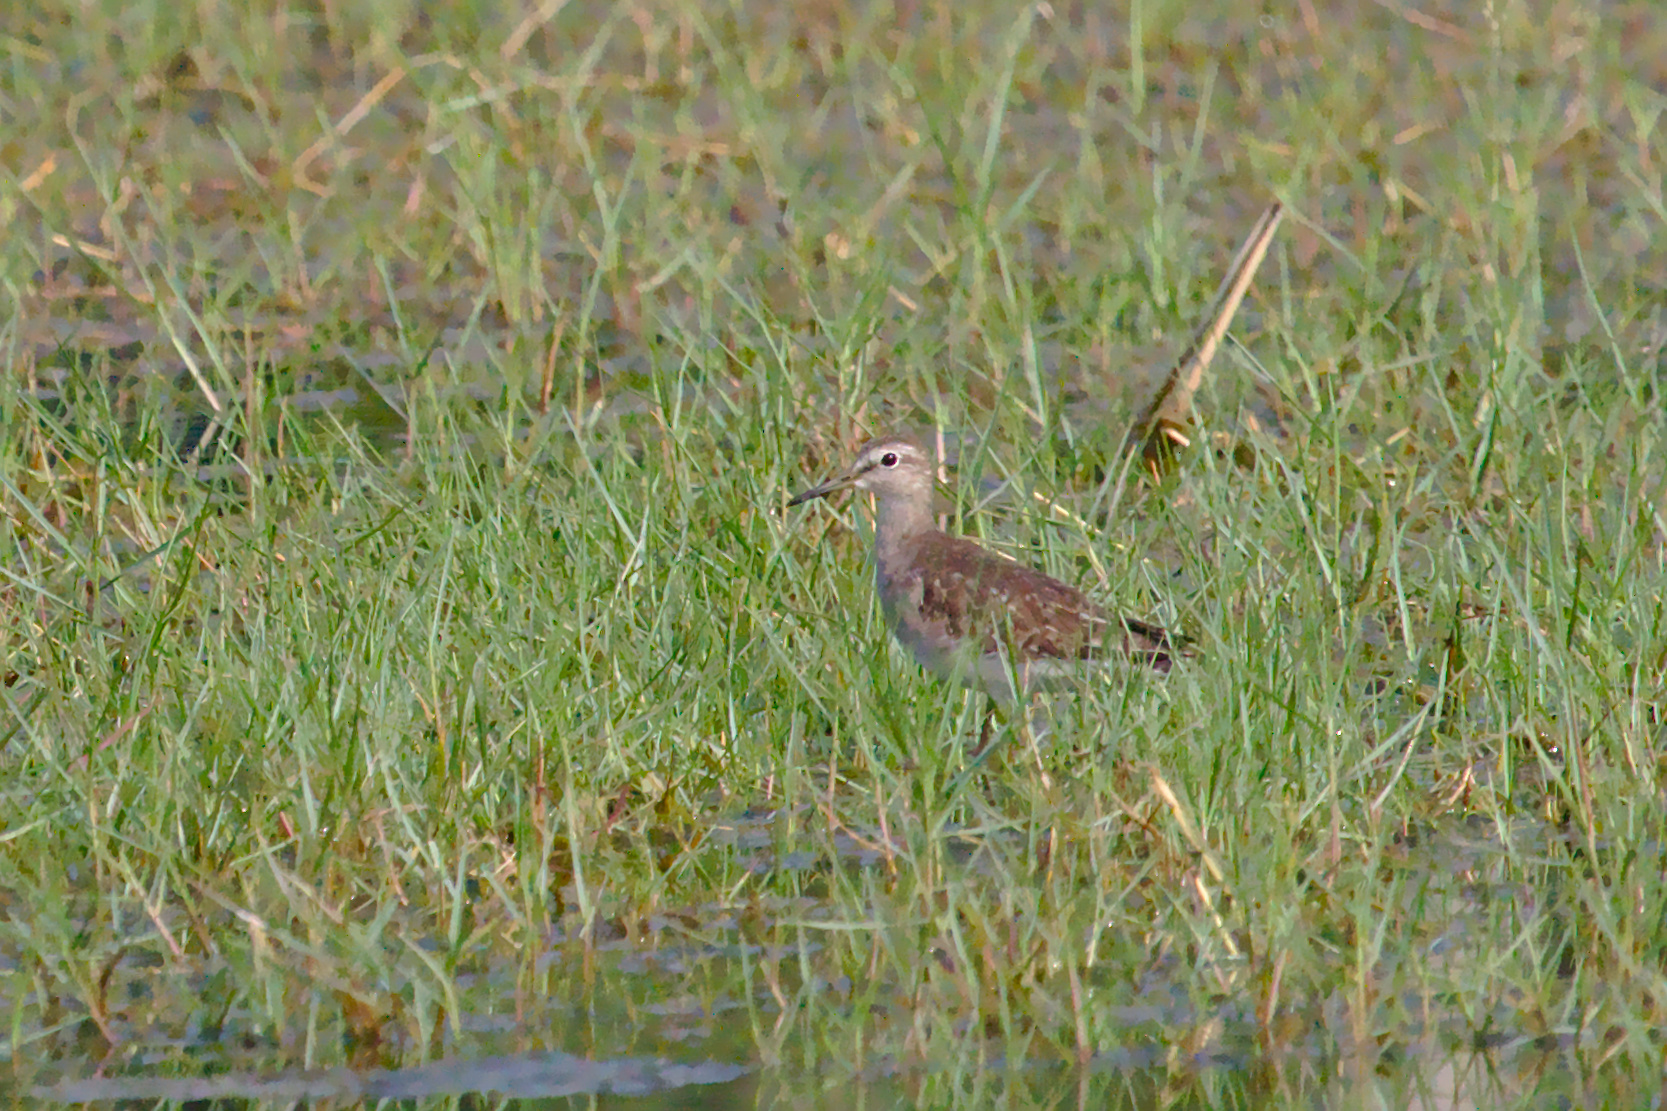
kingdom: Animalia
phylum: Chordata
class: Aves
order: Charadriiformes
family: Scolopacidae
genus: Tringa
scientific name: Tringa glareola
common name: Wood sandpiper
